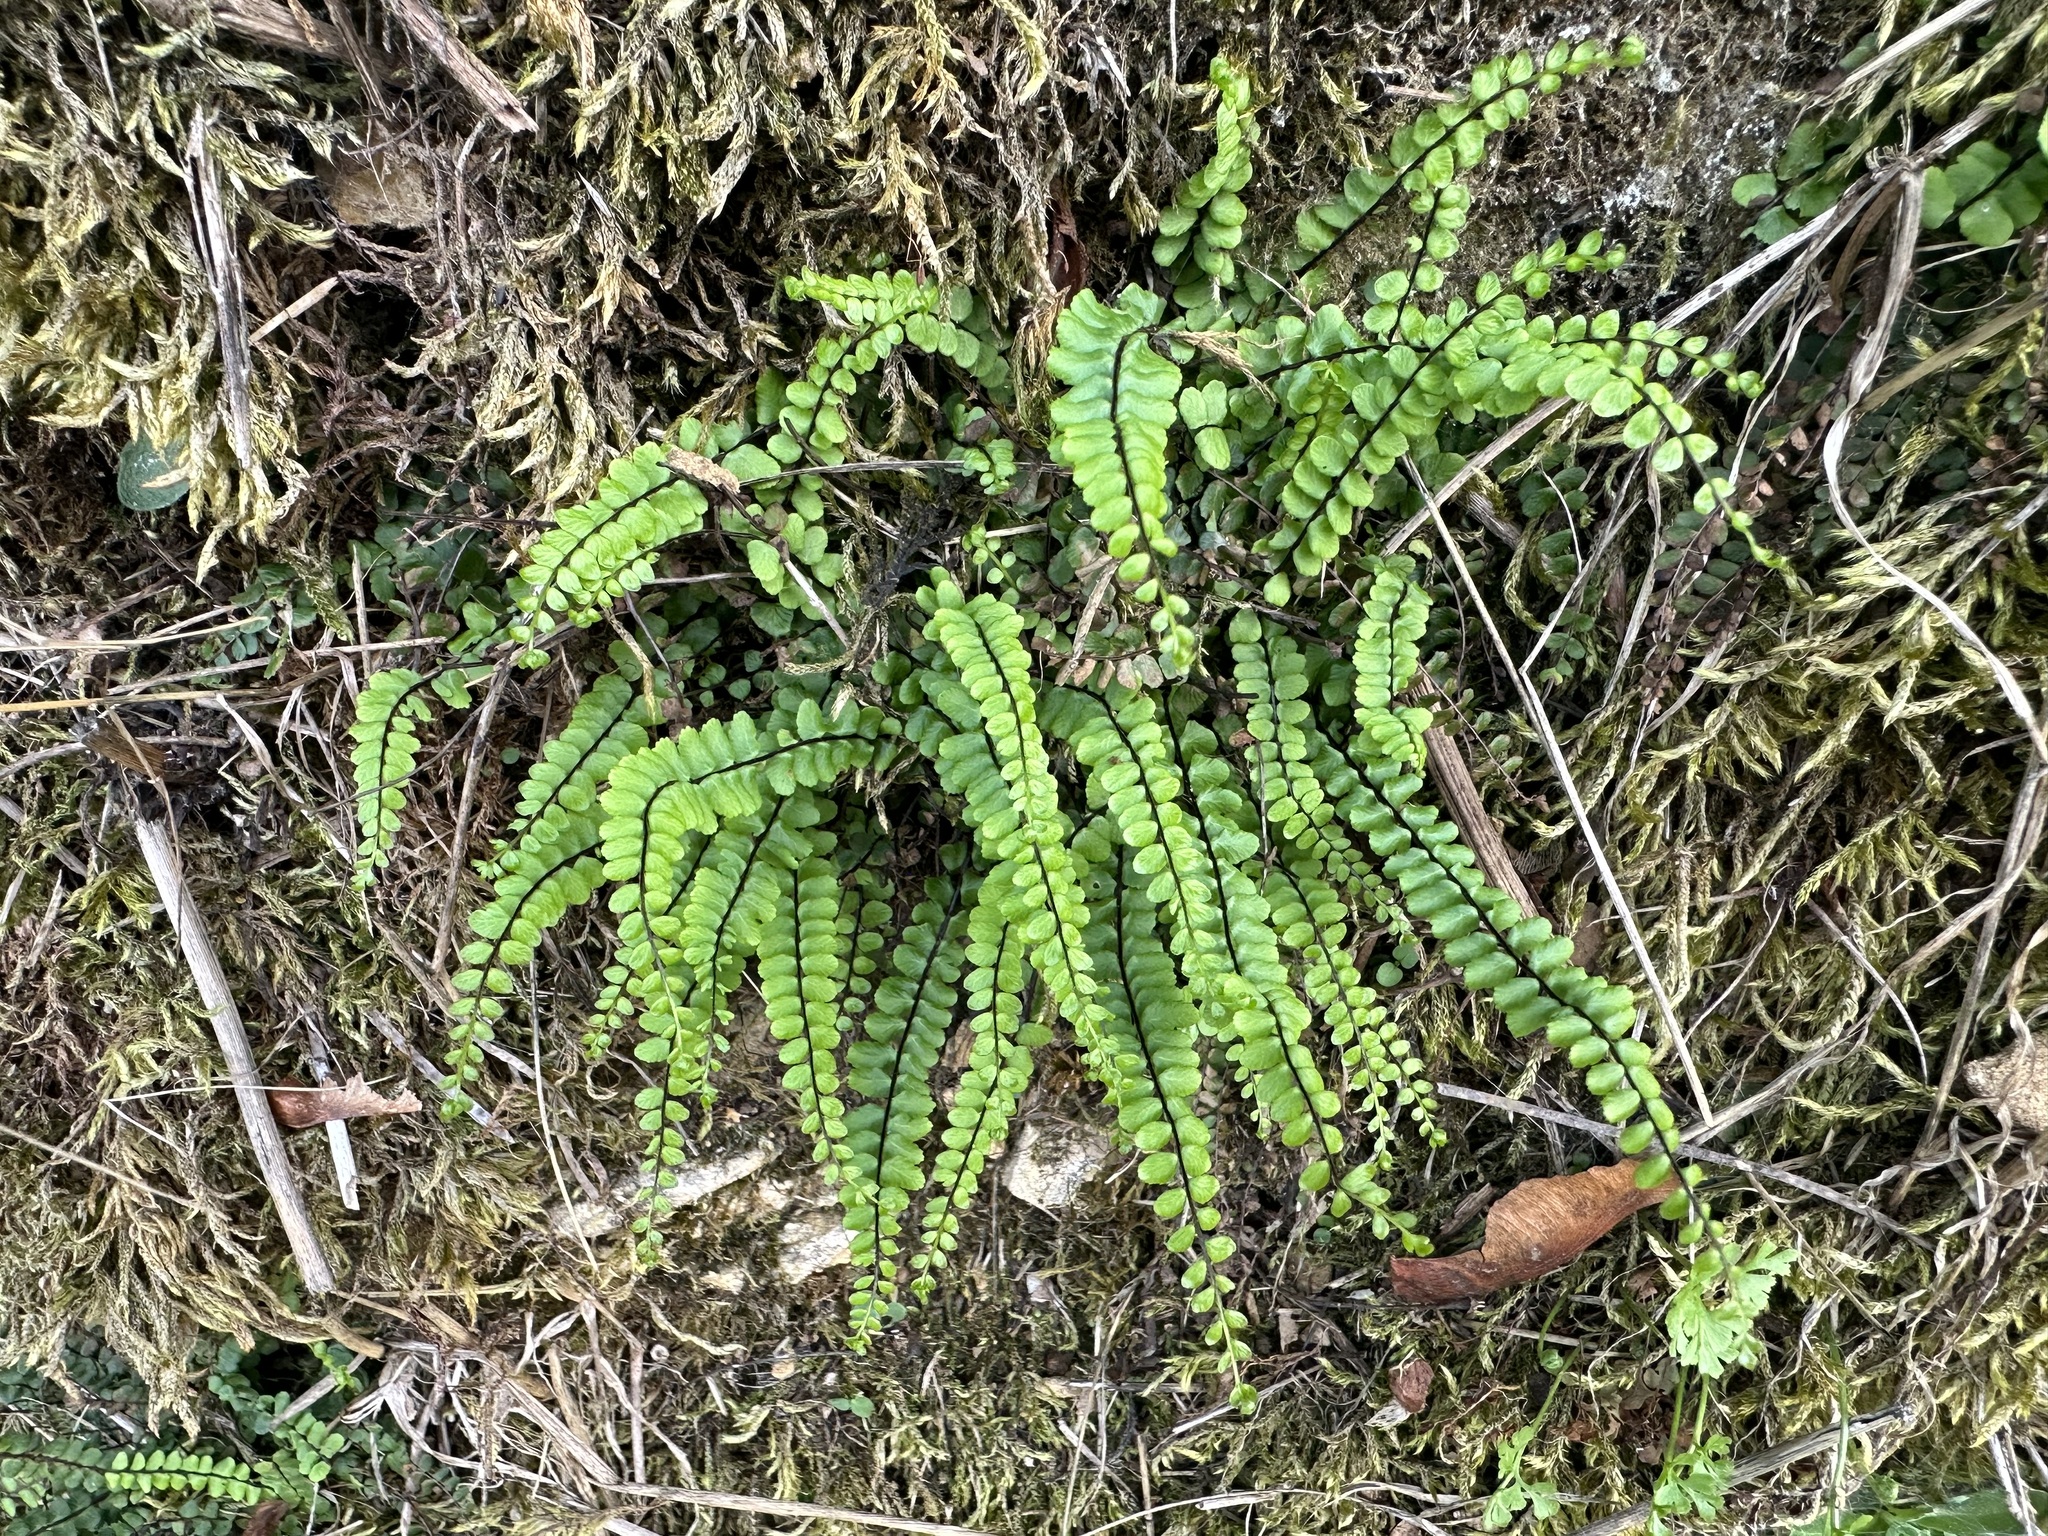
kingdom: Plantae
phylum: Tracheophyta
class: Polypodiopsida
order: Polypodiales
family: Aspleniaceae
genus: Asplenium
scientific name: Asplenium trichomanes
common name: Maidenhair spleenwort
